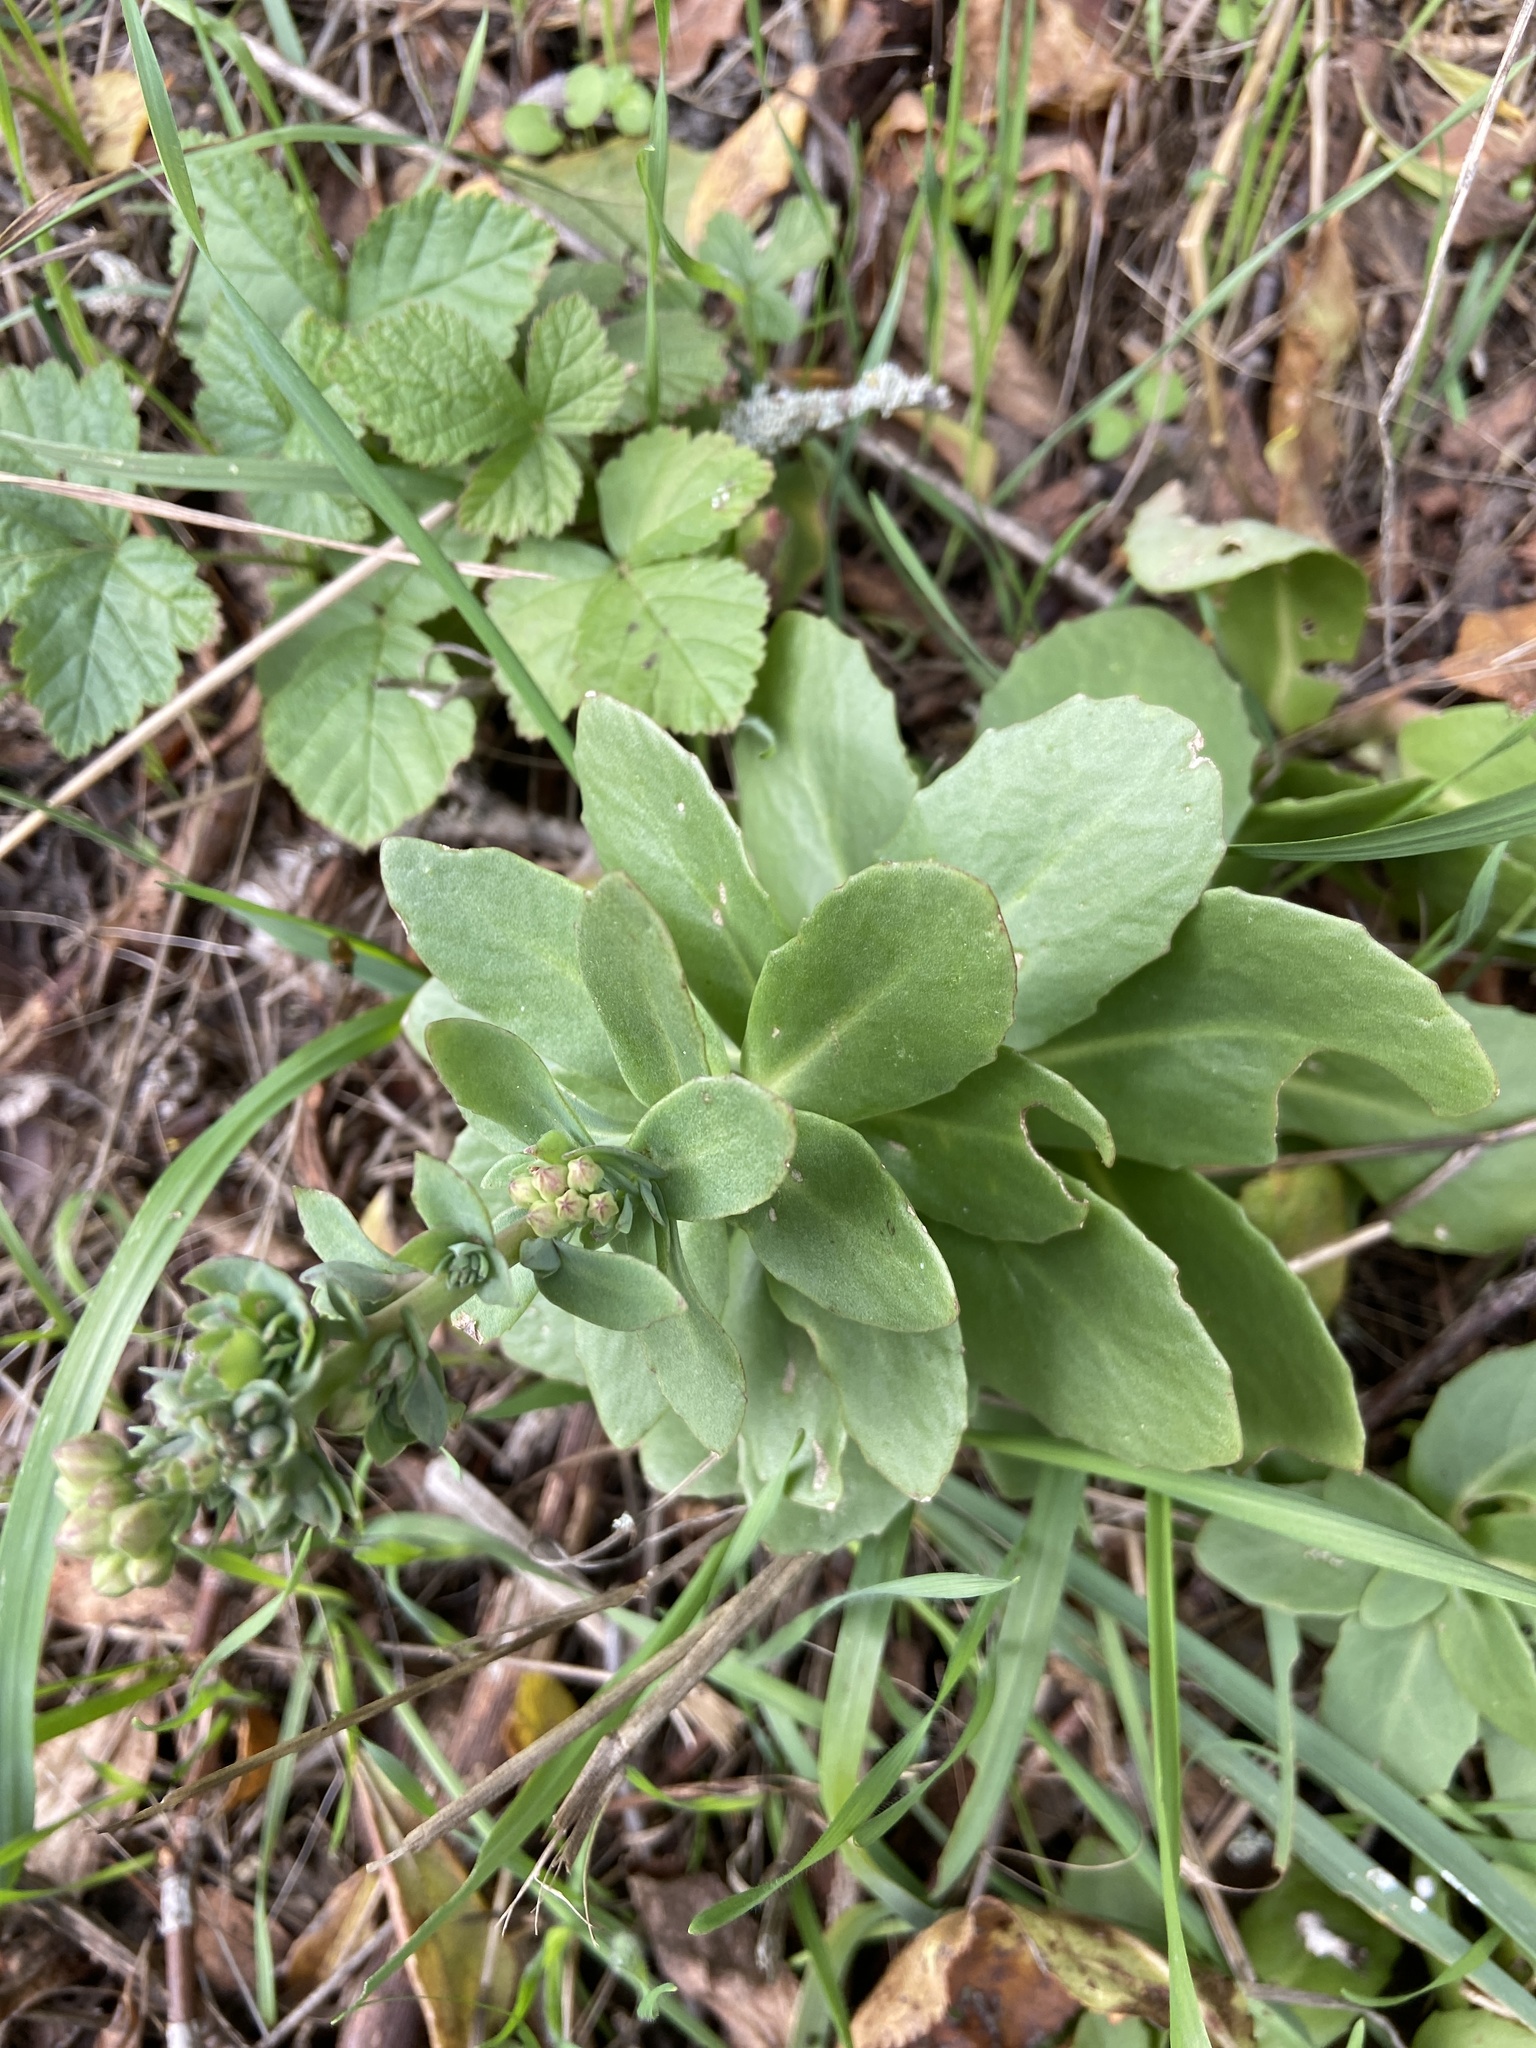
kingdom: Plantae
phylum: Tracheophyta
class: Magnoliopsida
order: Saxifragales
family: Crassulaceae
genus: Hylotelephium
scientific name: Hylotelephium maximum
